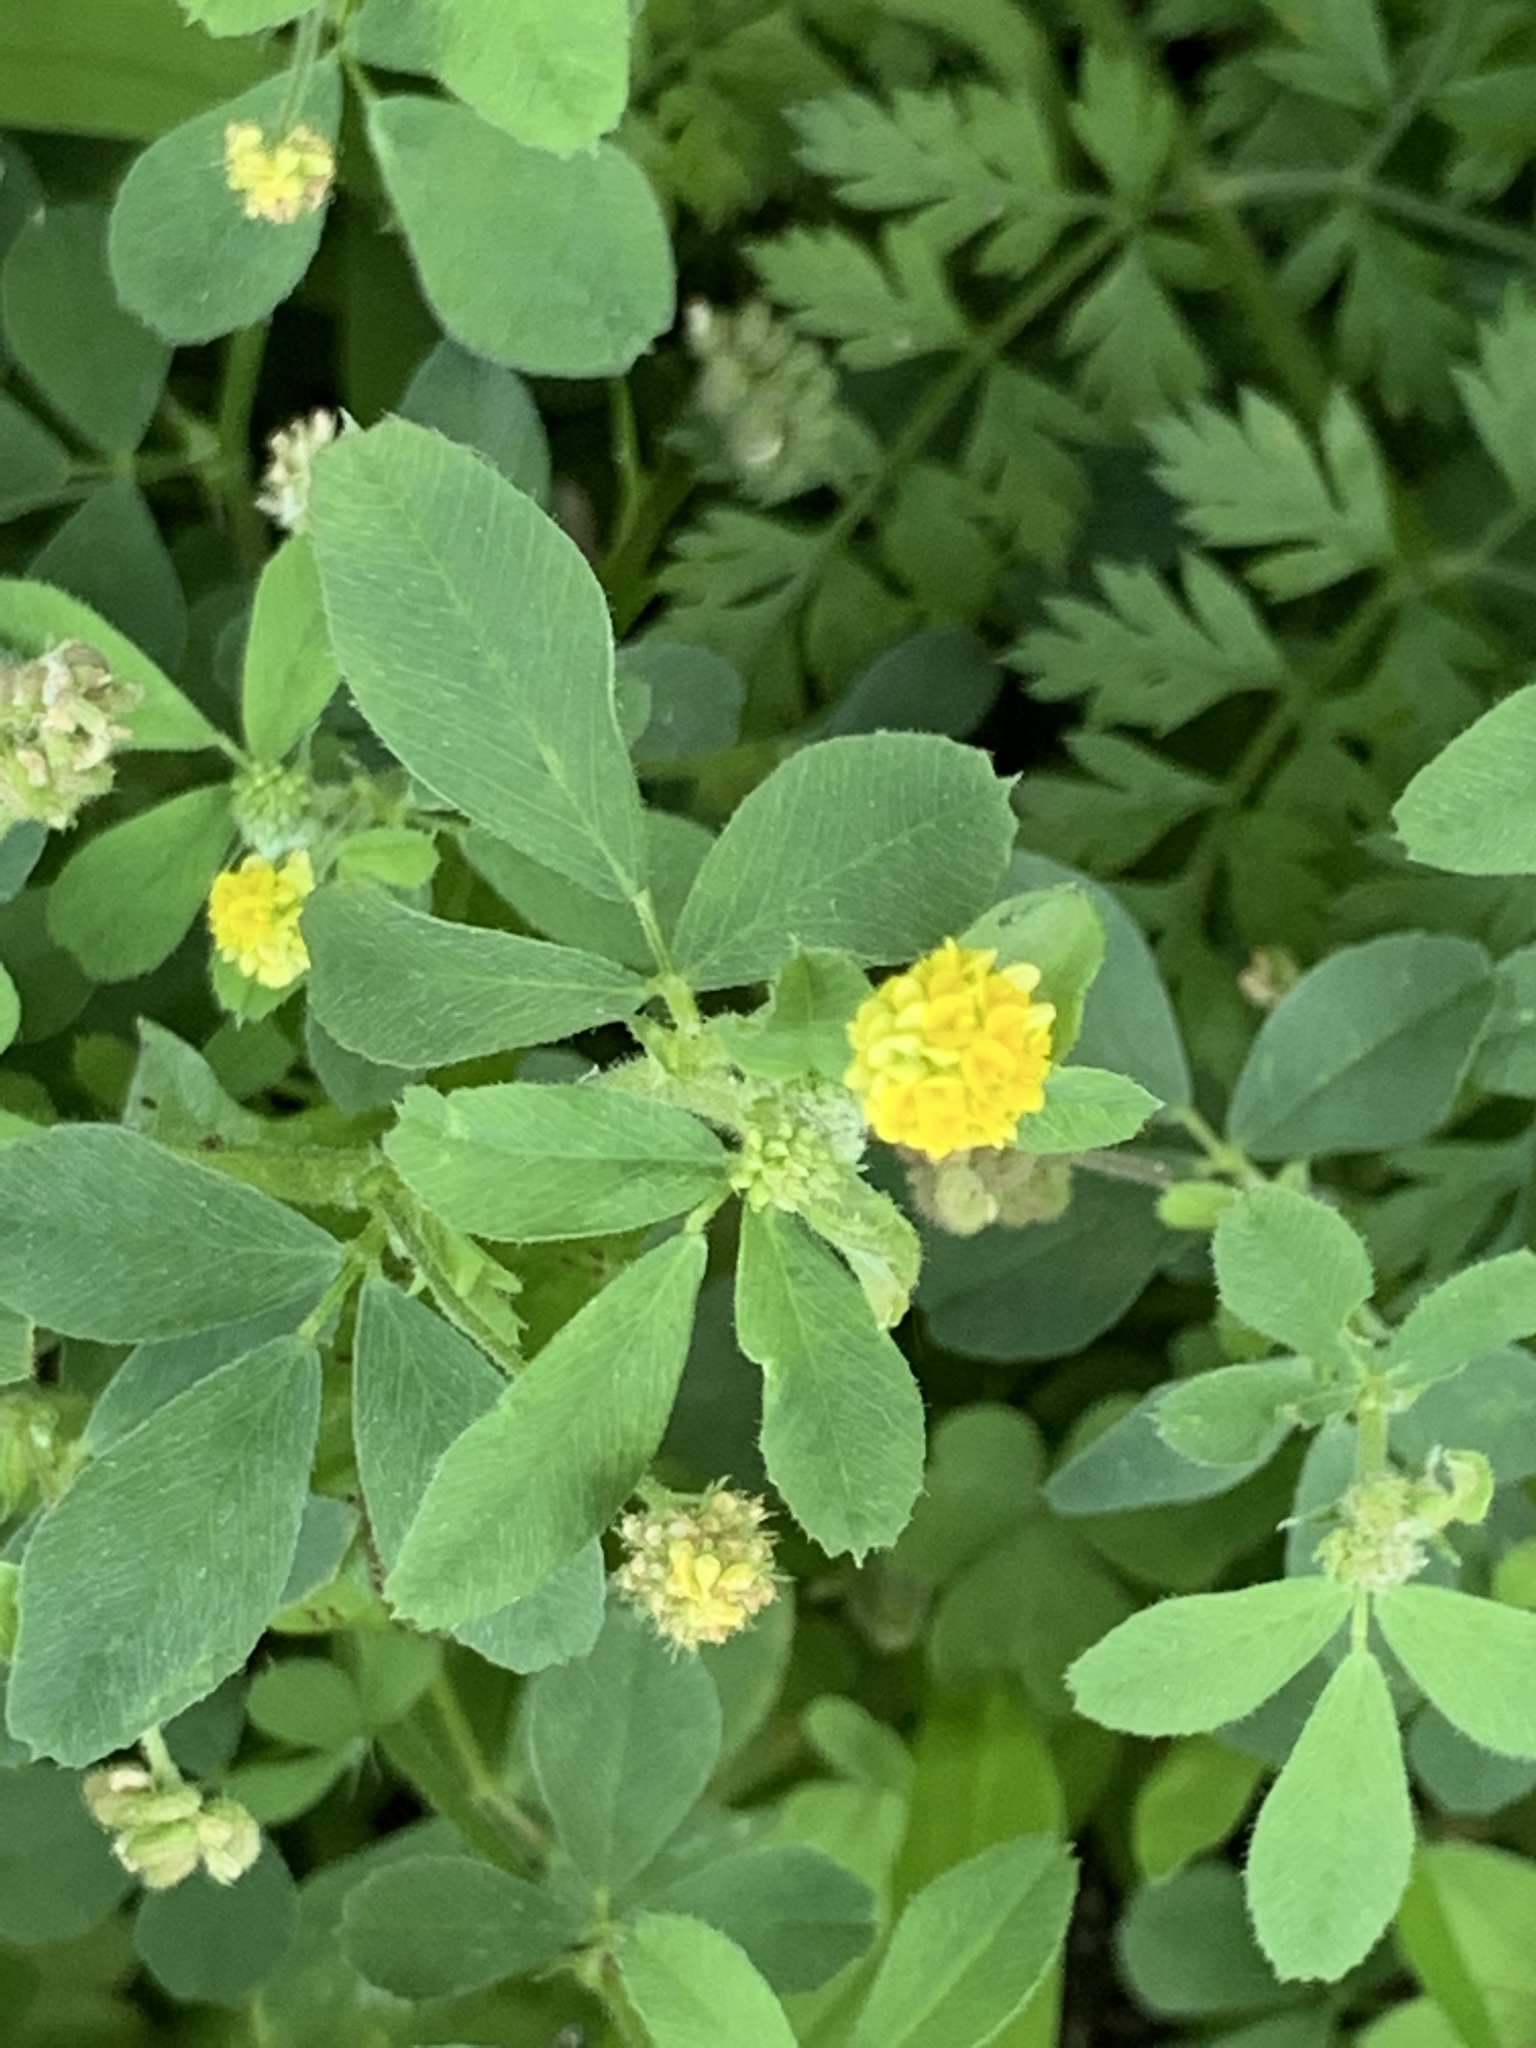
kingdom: Plantae
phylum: Tracheophyta
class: Magnoliopsida
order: Fabales
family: Fabaceae
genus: Medicago
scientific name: Medicago lupulina
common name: Black medick
